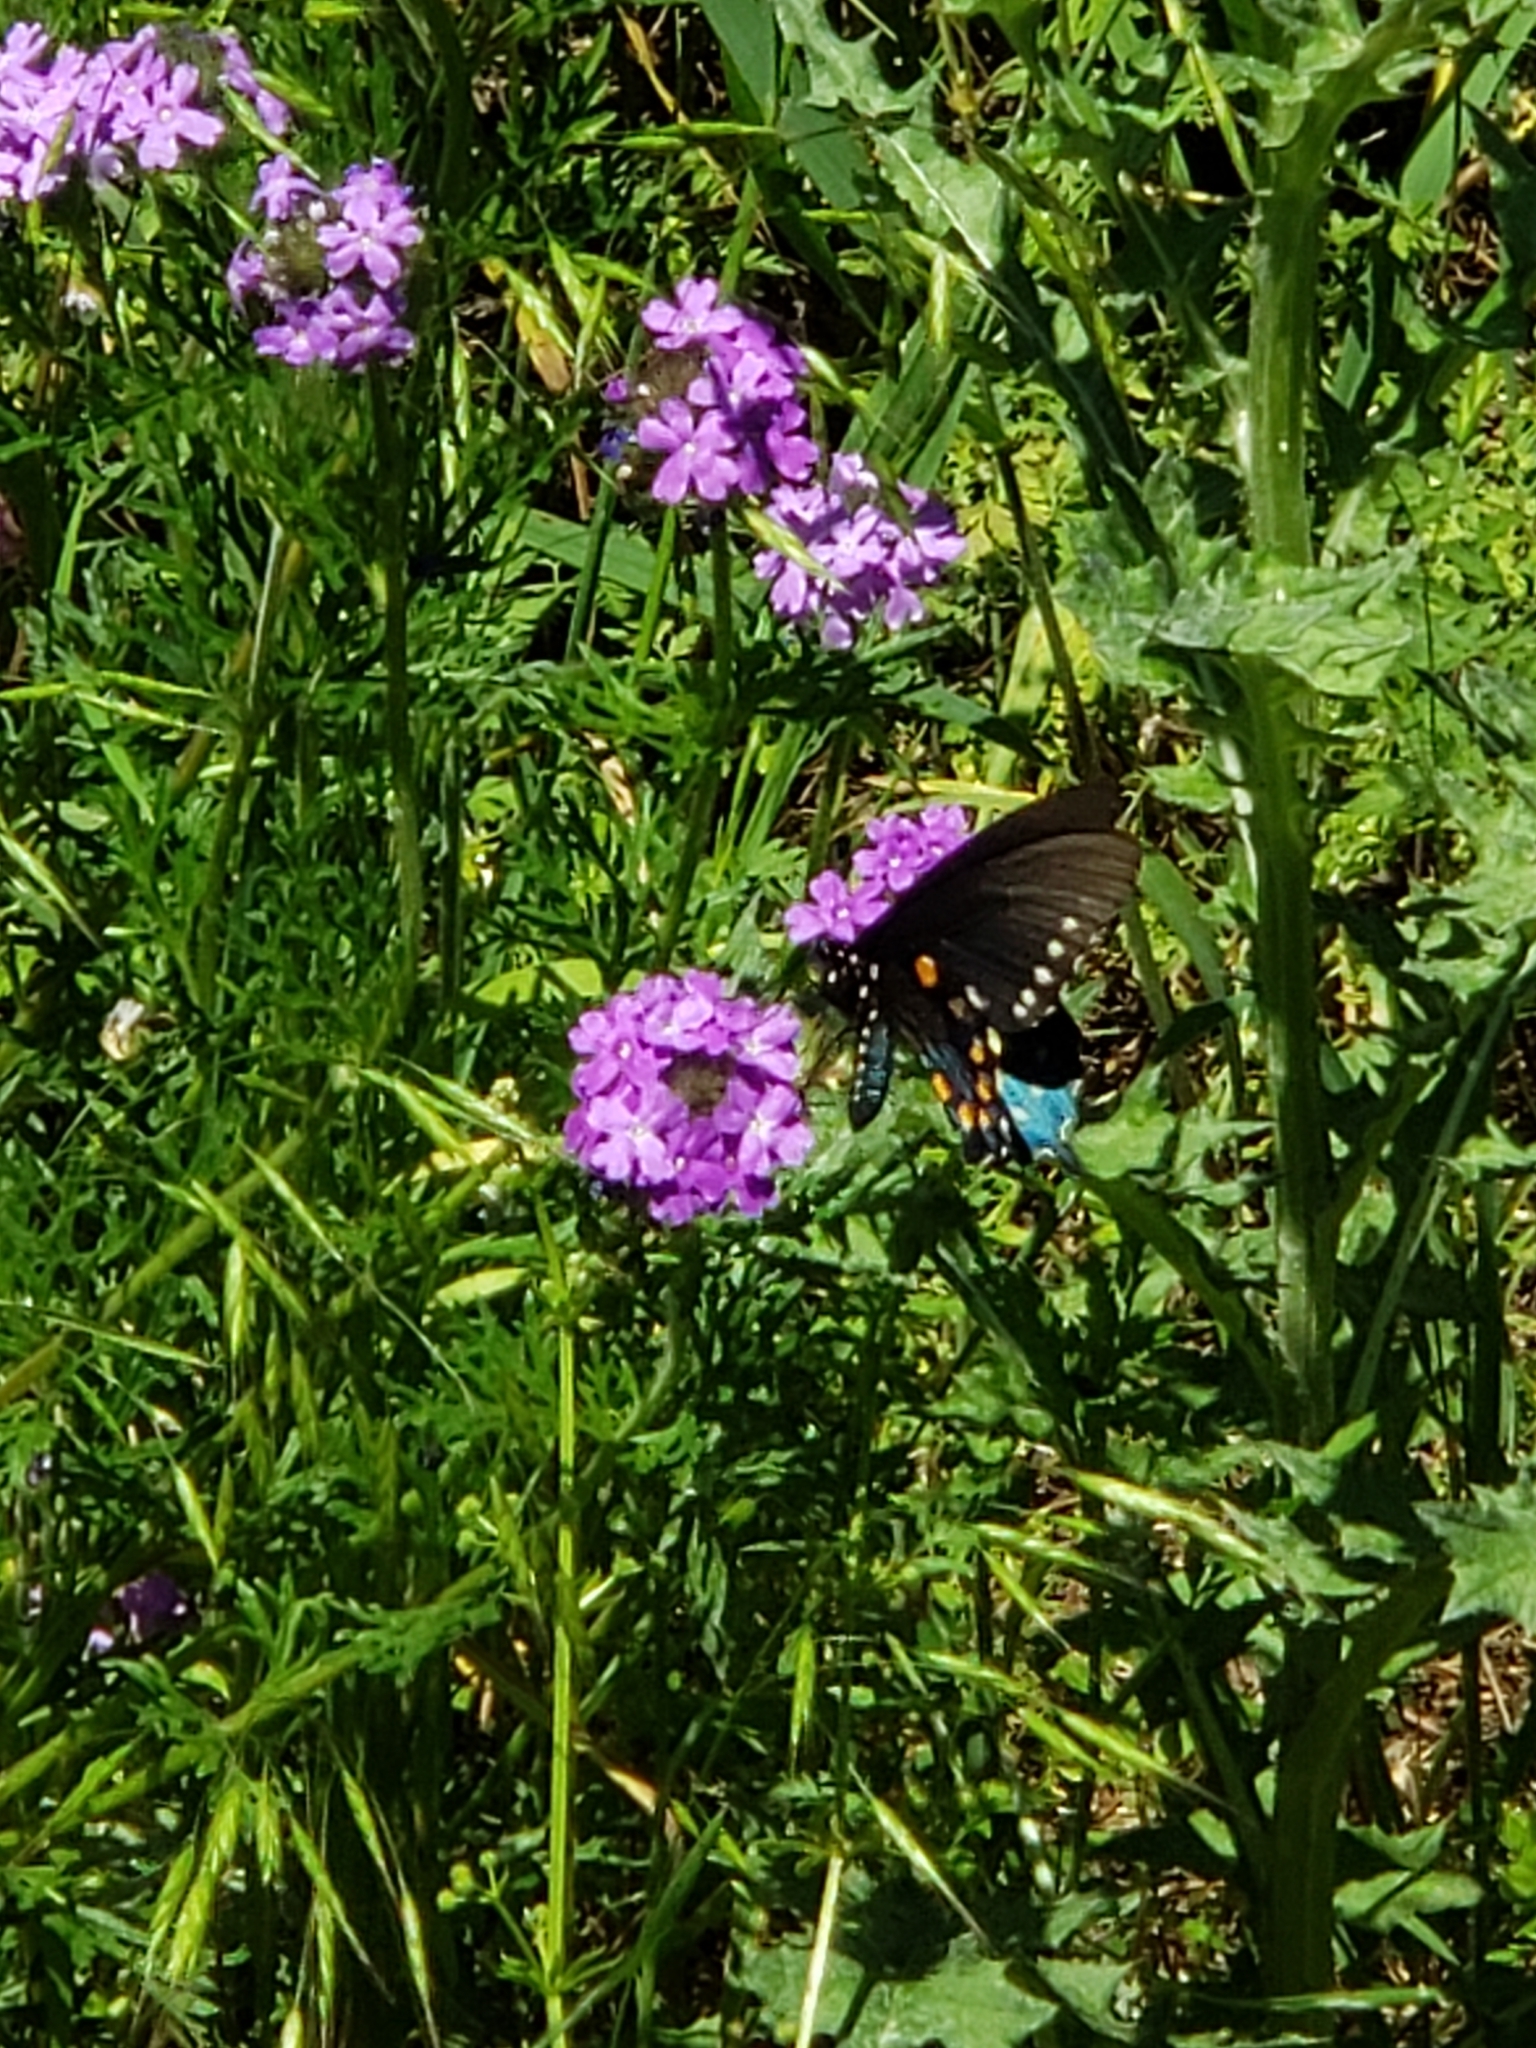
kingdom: Animalia
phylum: Arthropoda
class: Insecta
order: Lepidoptera
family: Papilionidae
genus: Battus
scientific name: Battus philenor
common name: Pipevine swallowtail
